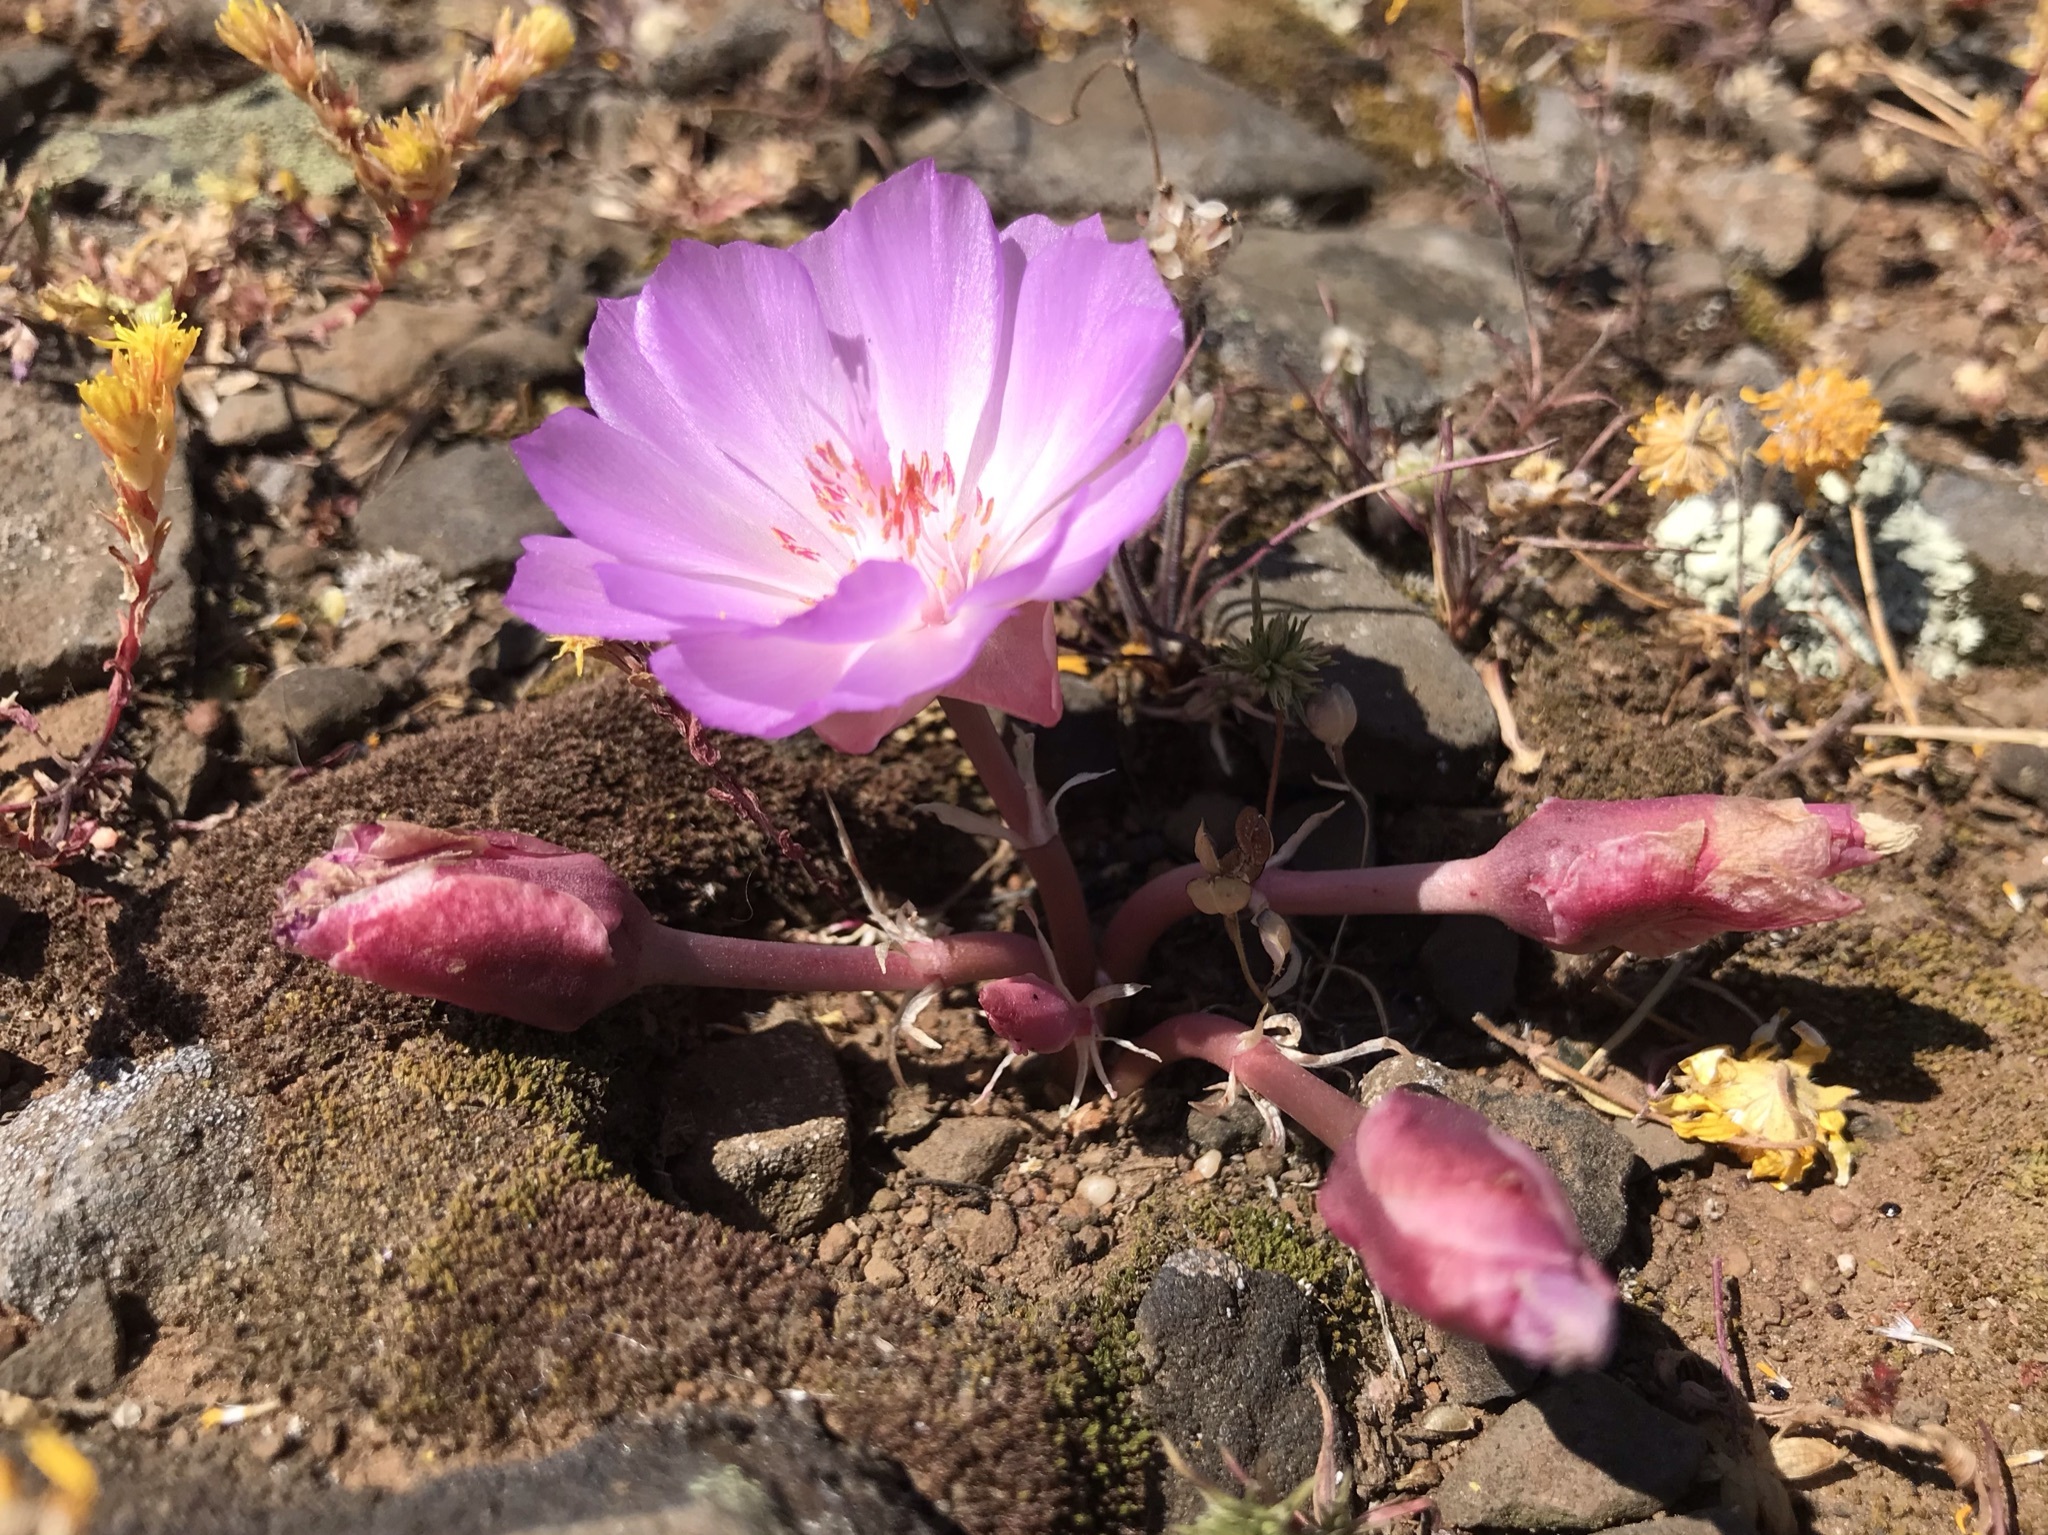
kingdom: Plantae
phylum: Tracheophyta
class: Magnoliopsida
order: Caryophyllales
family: Montiaceae
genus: Lewisia
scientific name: Lewisia rediviva
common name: Bitter-root
